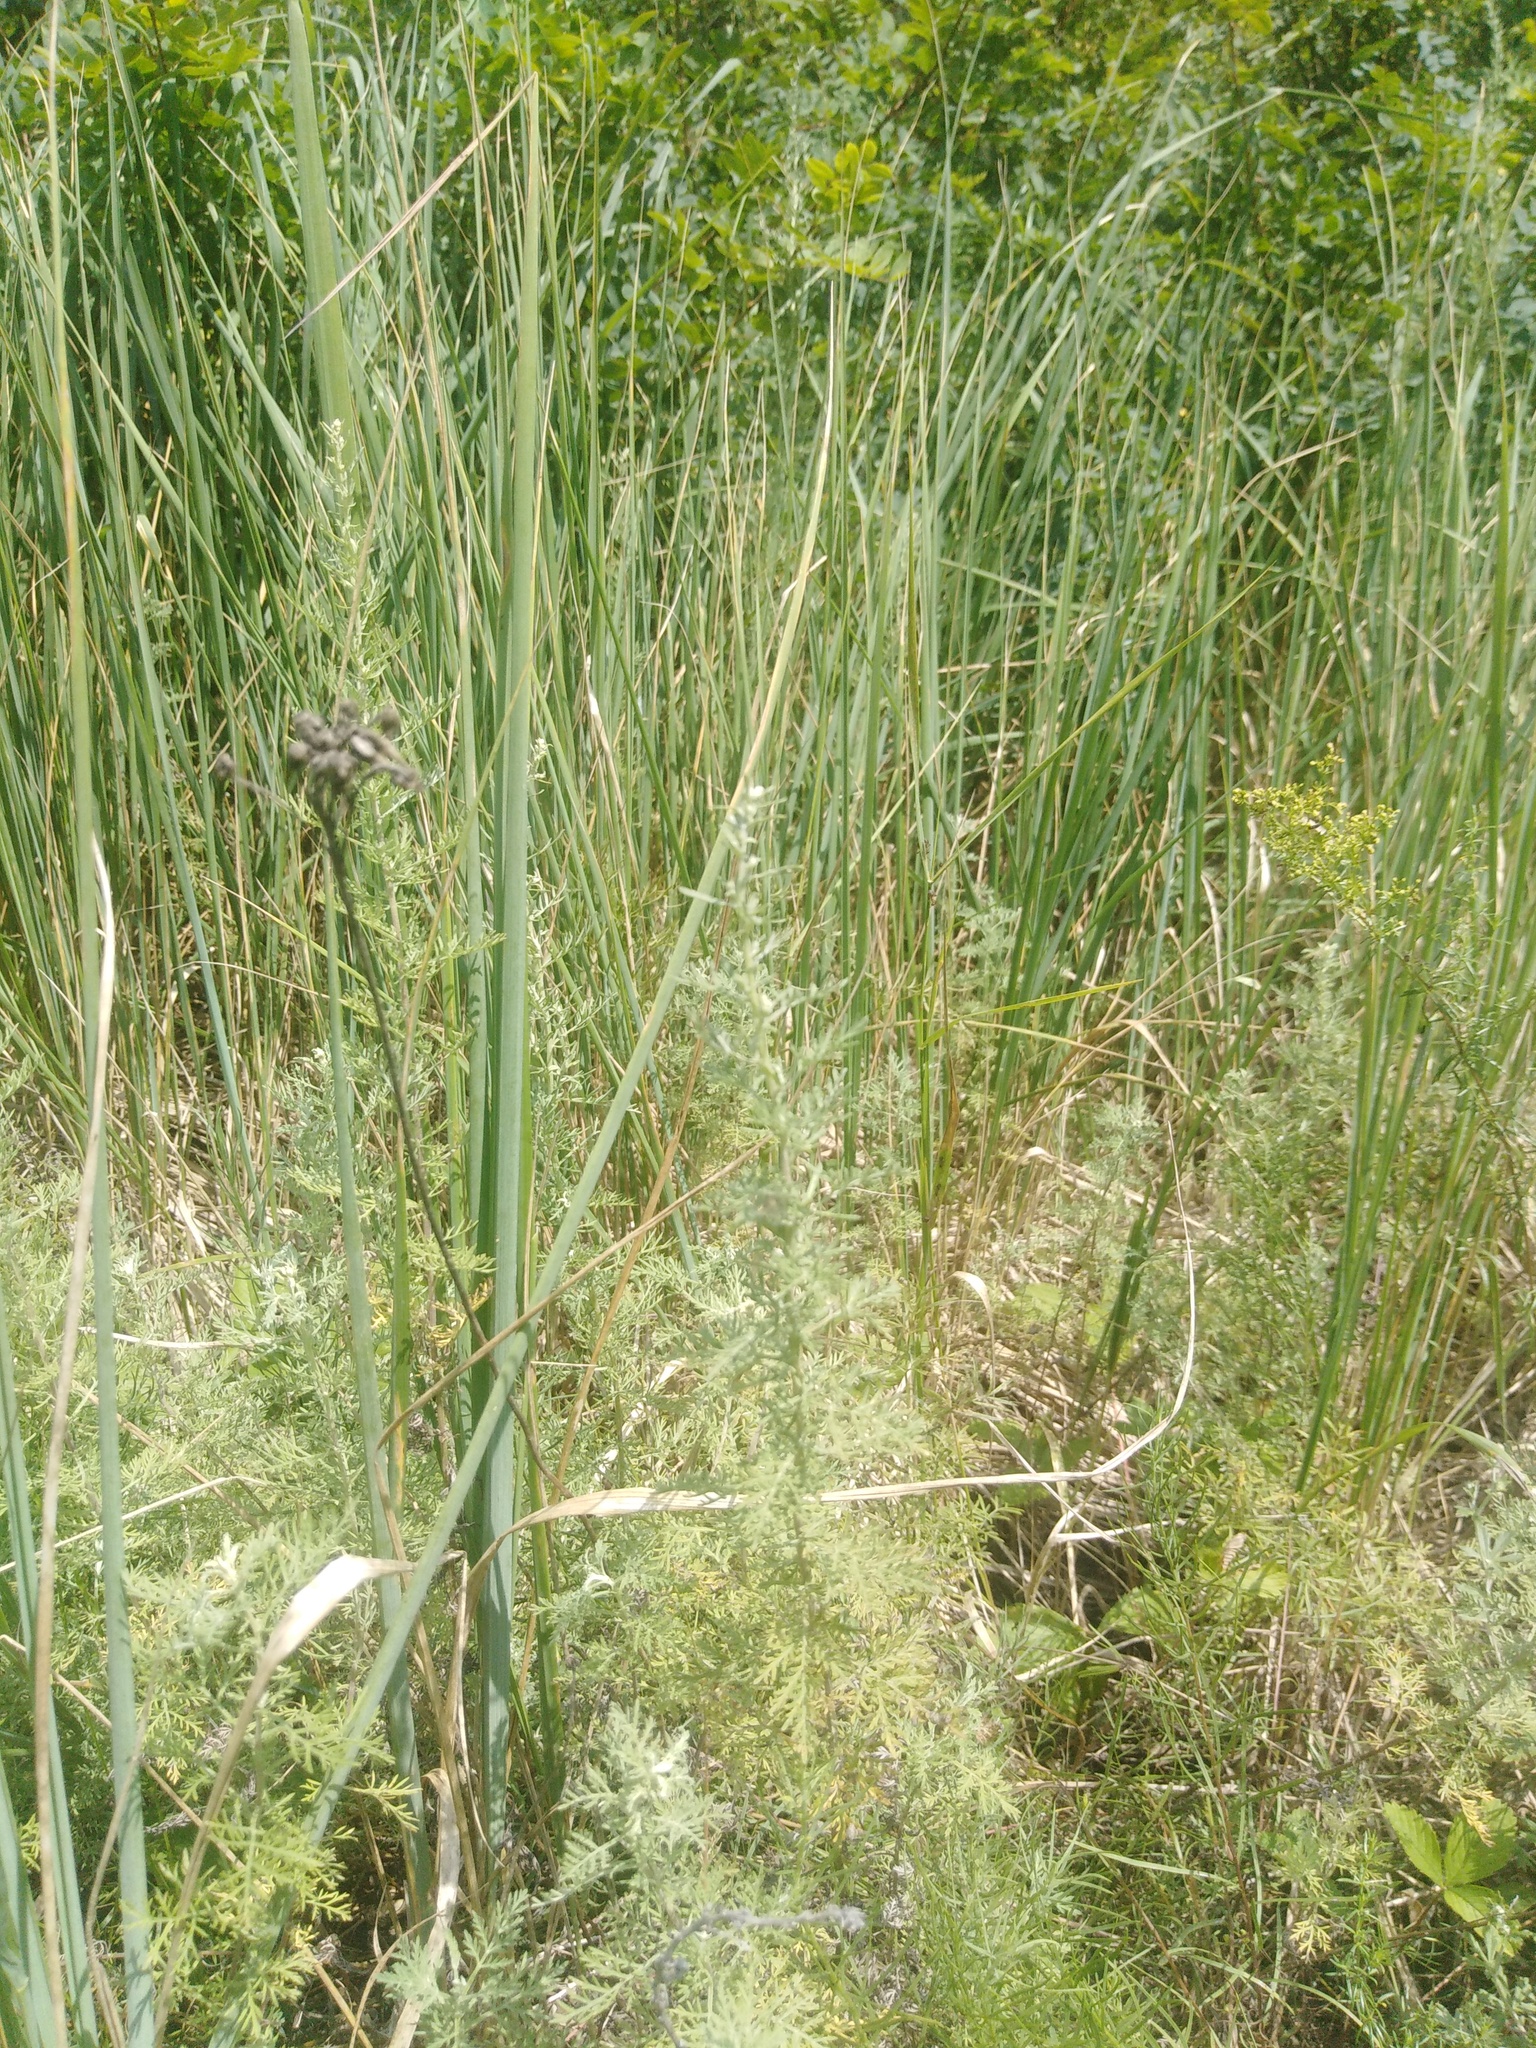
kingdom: Plantae
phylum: Tracheophyta
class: Magnoliopsida
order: Asterales
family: Asteraceae
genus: Artemisia
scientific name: Artemisia pontica
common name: Roman wormwood
